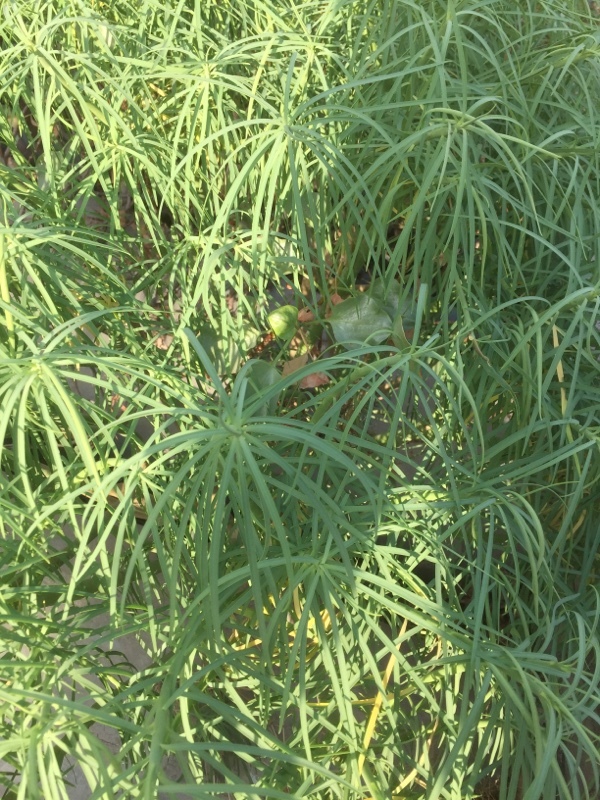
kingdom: Plantae
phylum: Tracheophyta
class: Magnoliopsida
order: Malpighiales
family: Euphorbiaceae
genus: Euphorbia
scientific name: Euphorbia lamarckii
